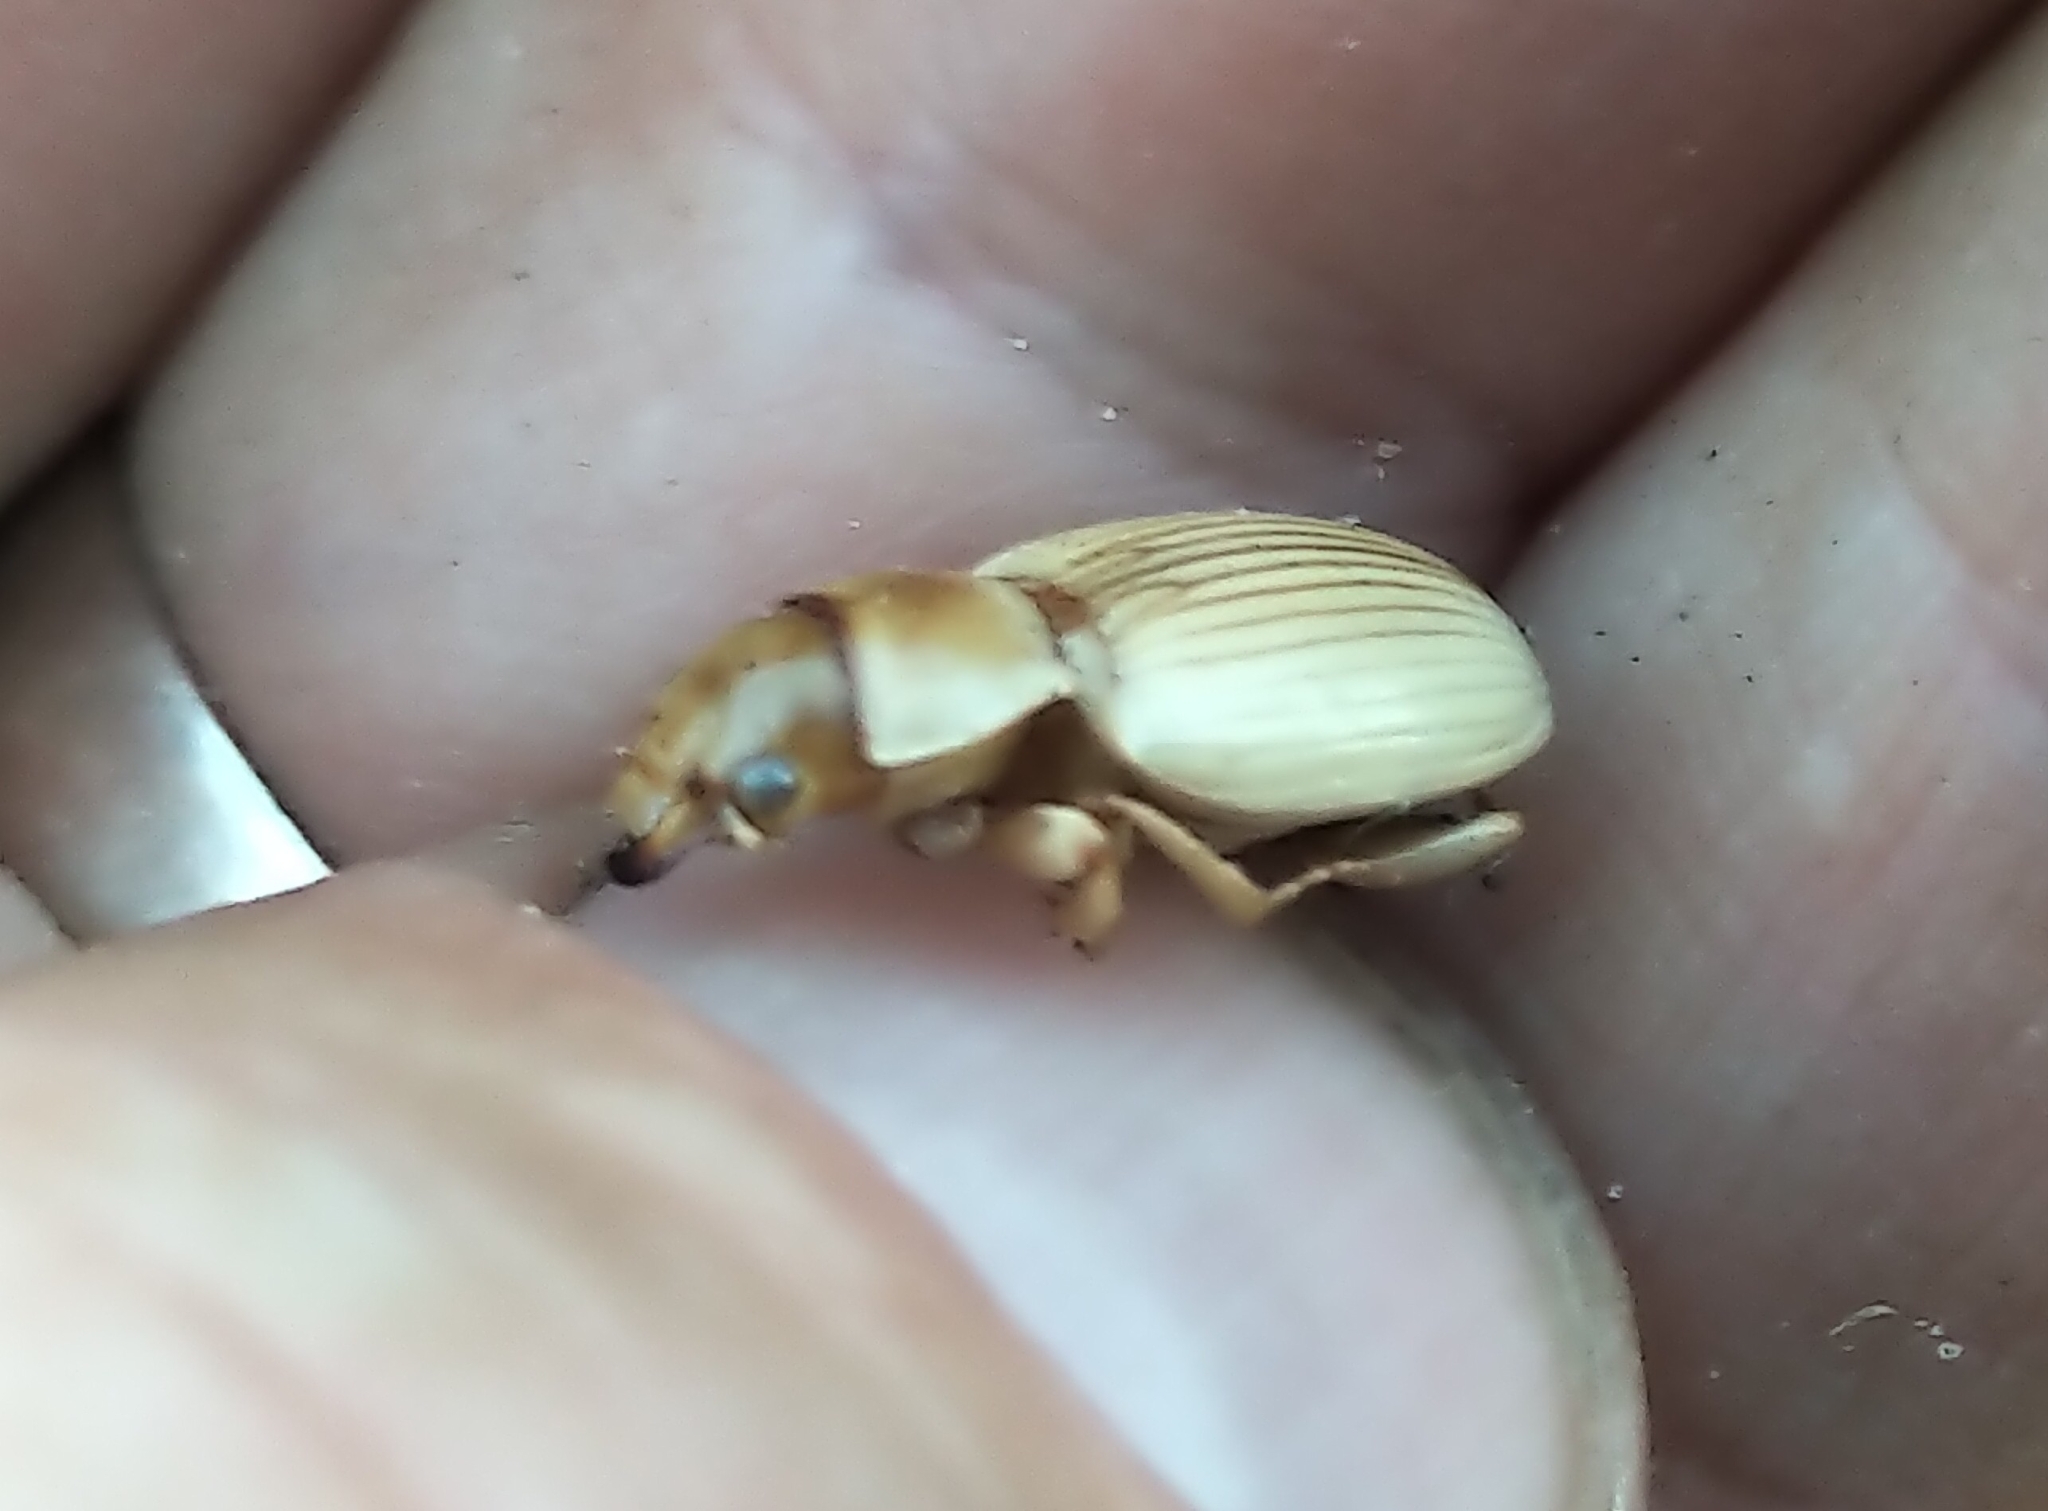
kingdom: Animalia
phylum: Arthropoda
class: Insecta
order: Coleoptera
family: Carabidae
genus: Geopinus
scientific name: Geopinus incrassatus
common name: Homely geopinus
